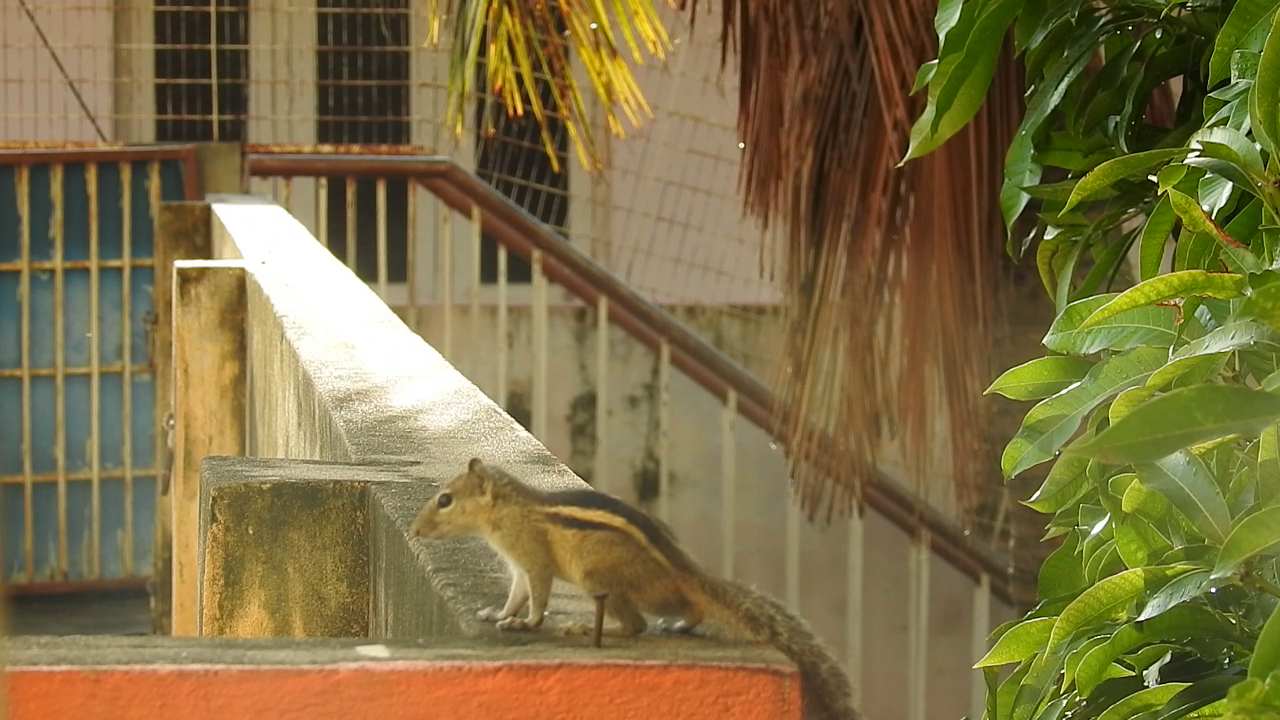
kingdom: Animalia
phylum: Chordata
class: Mammalia
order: Rodentia
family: Sciuridae
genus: Funambulus
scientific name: Funambulus palmarum
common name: Indian palm squirrel
